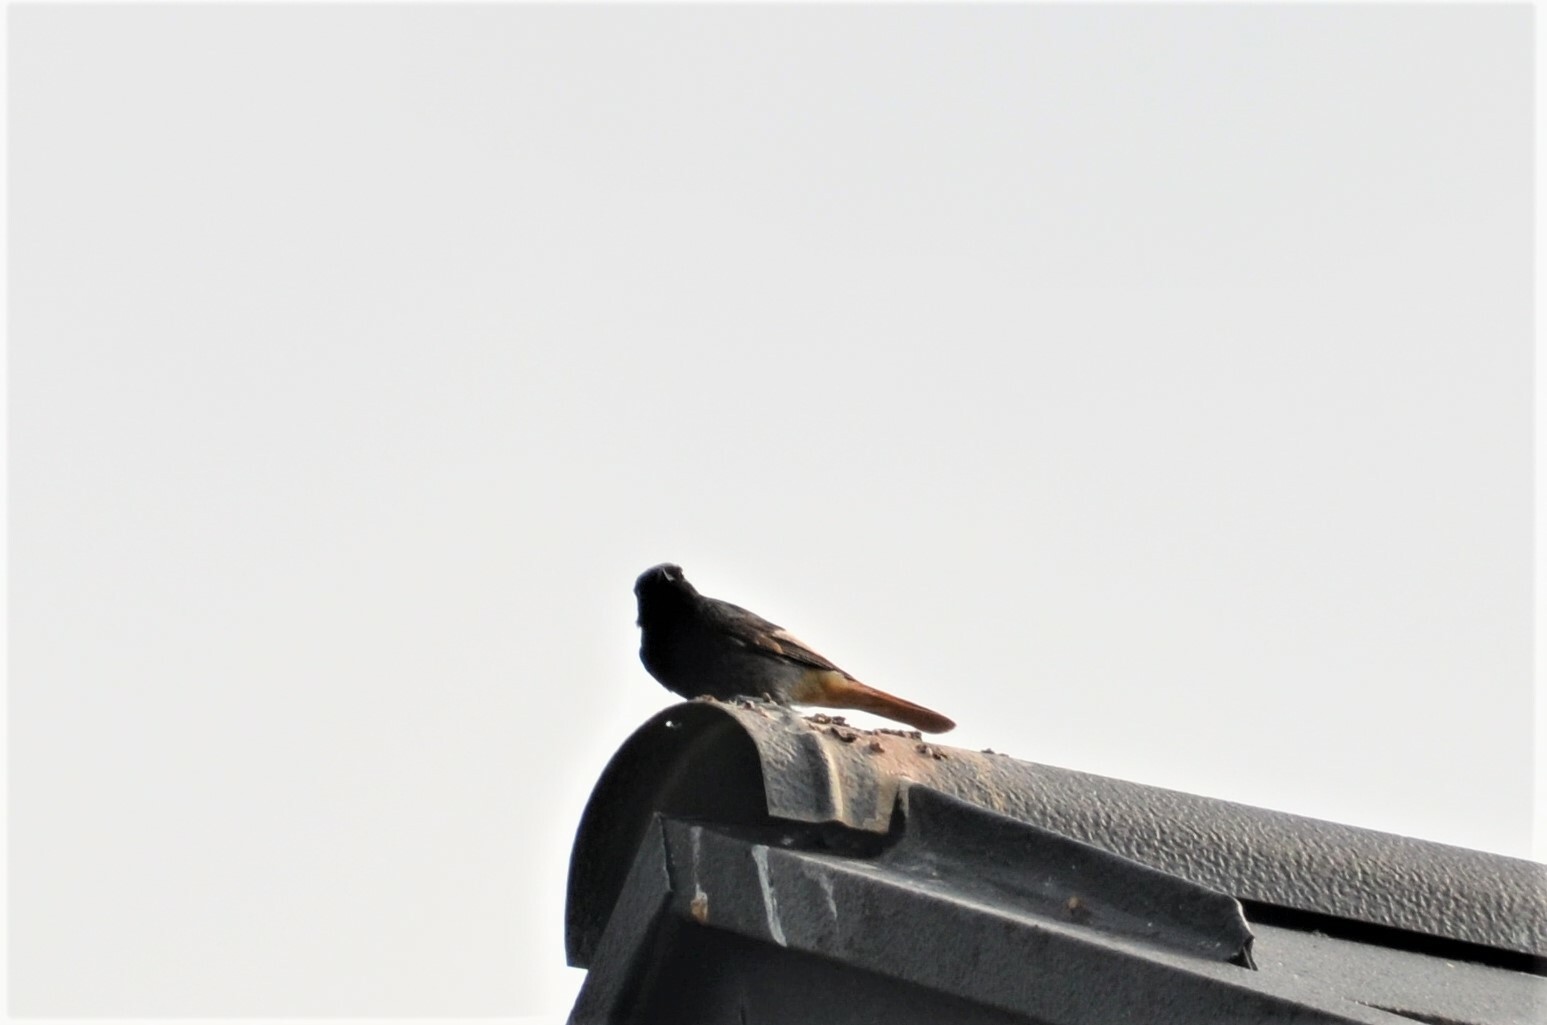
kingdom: Animalia
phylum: Chordata
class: Aves
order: Passeriformes
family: Muscicapidae
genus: Phoenicurus
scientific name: Phoenicurus ochruros
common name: Black redstart
